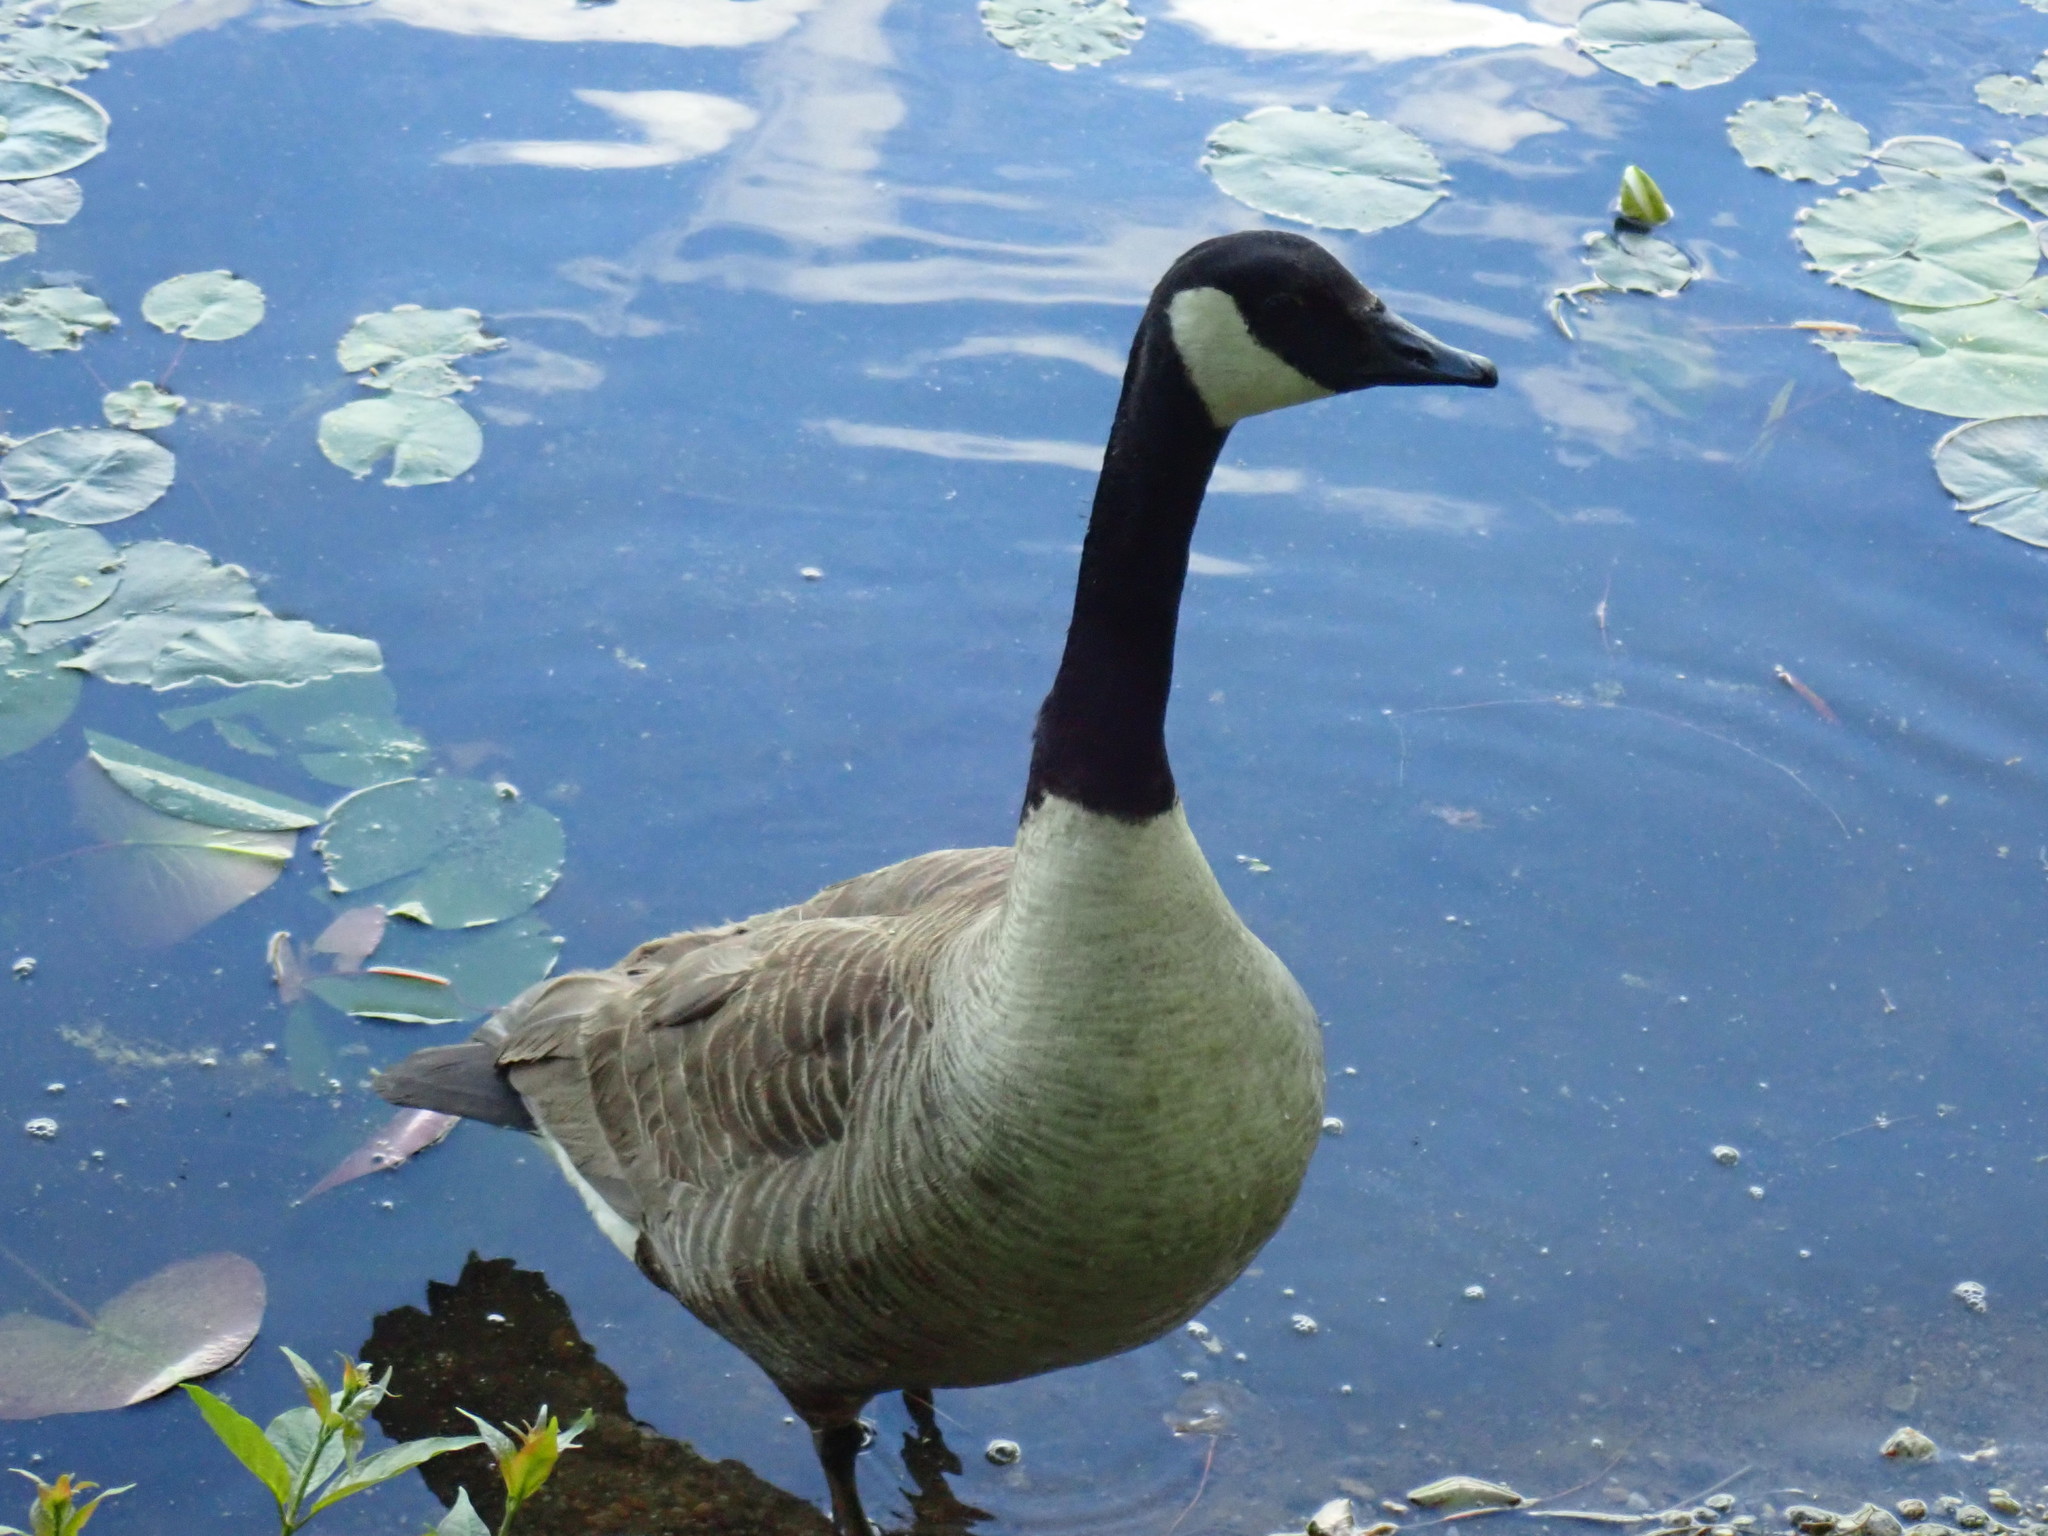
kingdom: Animalia
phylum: Chordata
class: Aves
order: Anseriformes
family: Anatidae
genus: Branta
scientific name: Branta canadensis
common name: Canada goose
